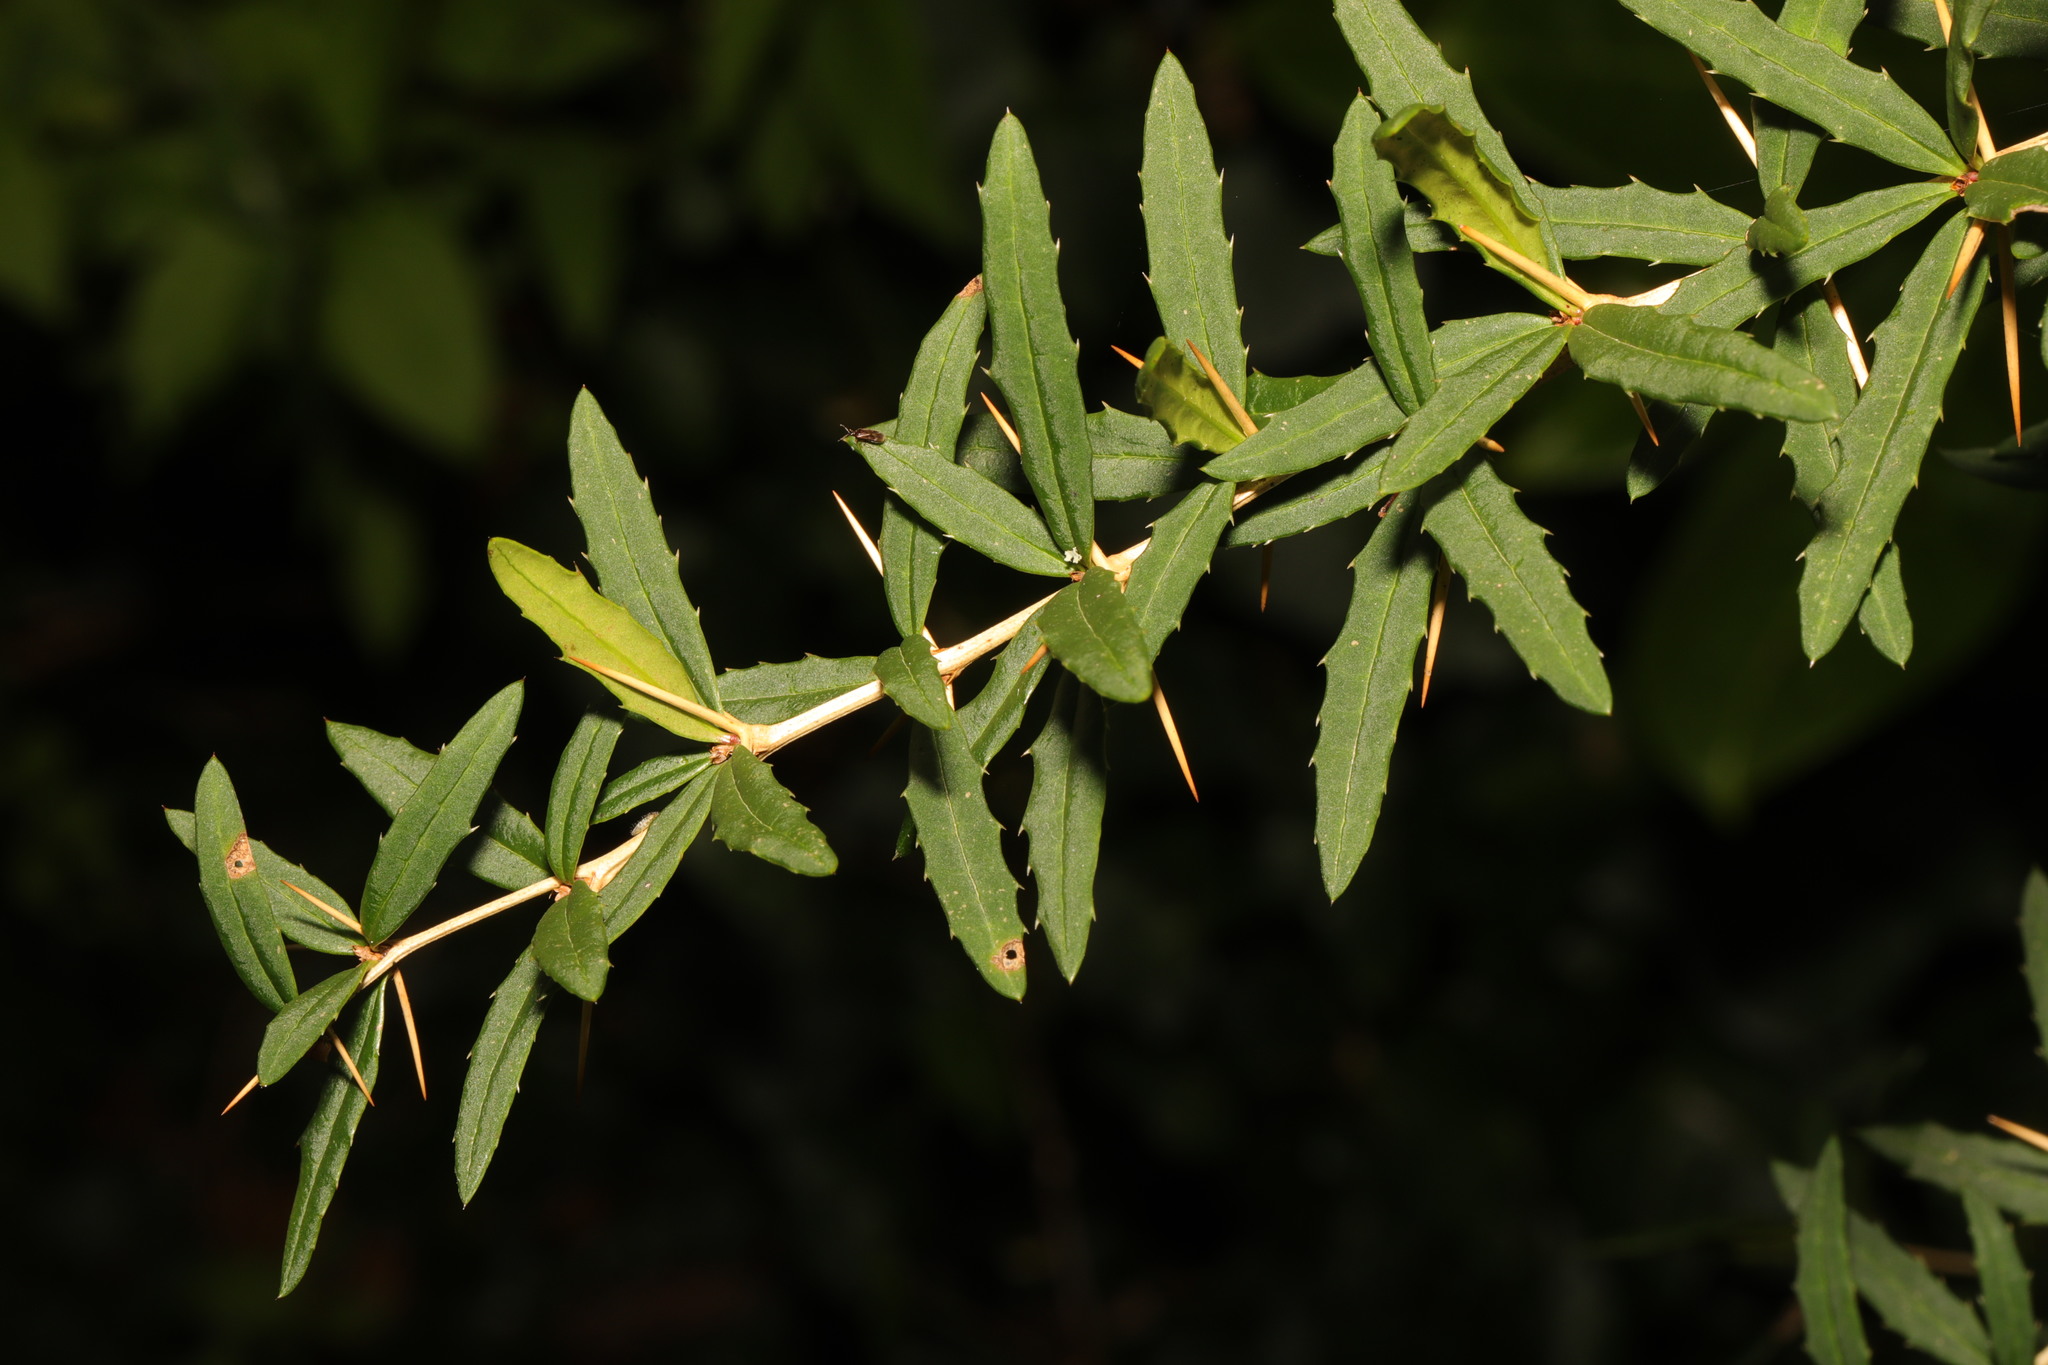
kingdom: Plantae
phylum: Tracheophyta
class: Magnoliopsida
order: Ranunculales
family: Berberidaceae
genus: Berberis
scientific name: Berberis gagnepainii
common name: Gagnepain's barberry
